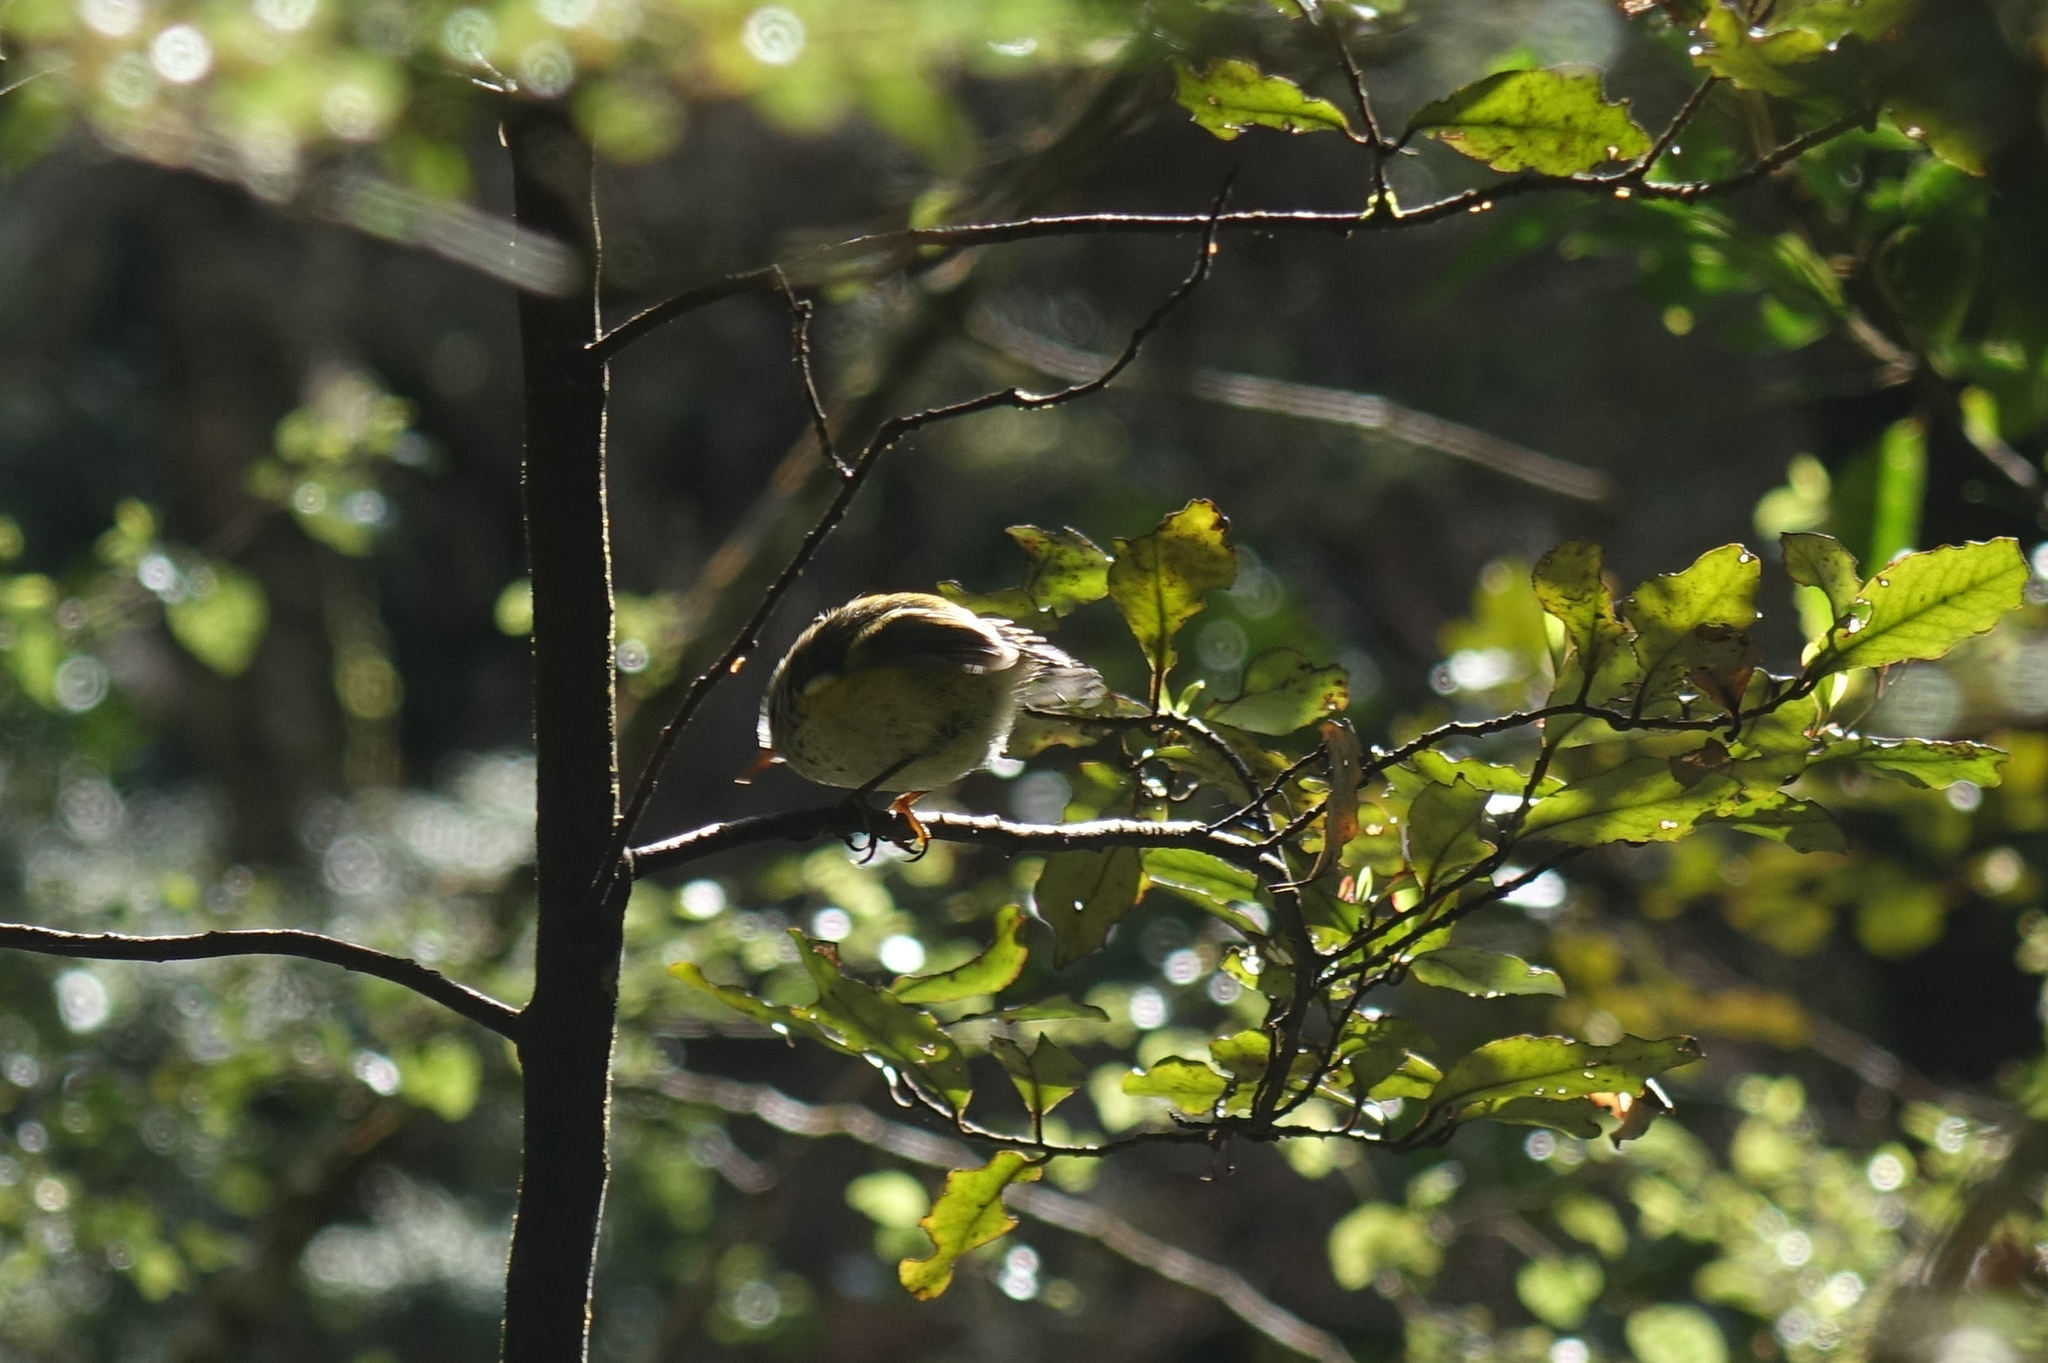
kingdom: Animalia
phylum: Chordata
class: Aves
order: Passeriformes
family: Acanthisittidae
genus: Acanthisitta
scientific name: Acanthisitta chloris
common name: Rifleman
